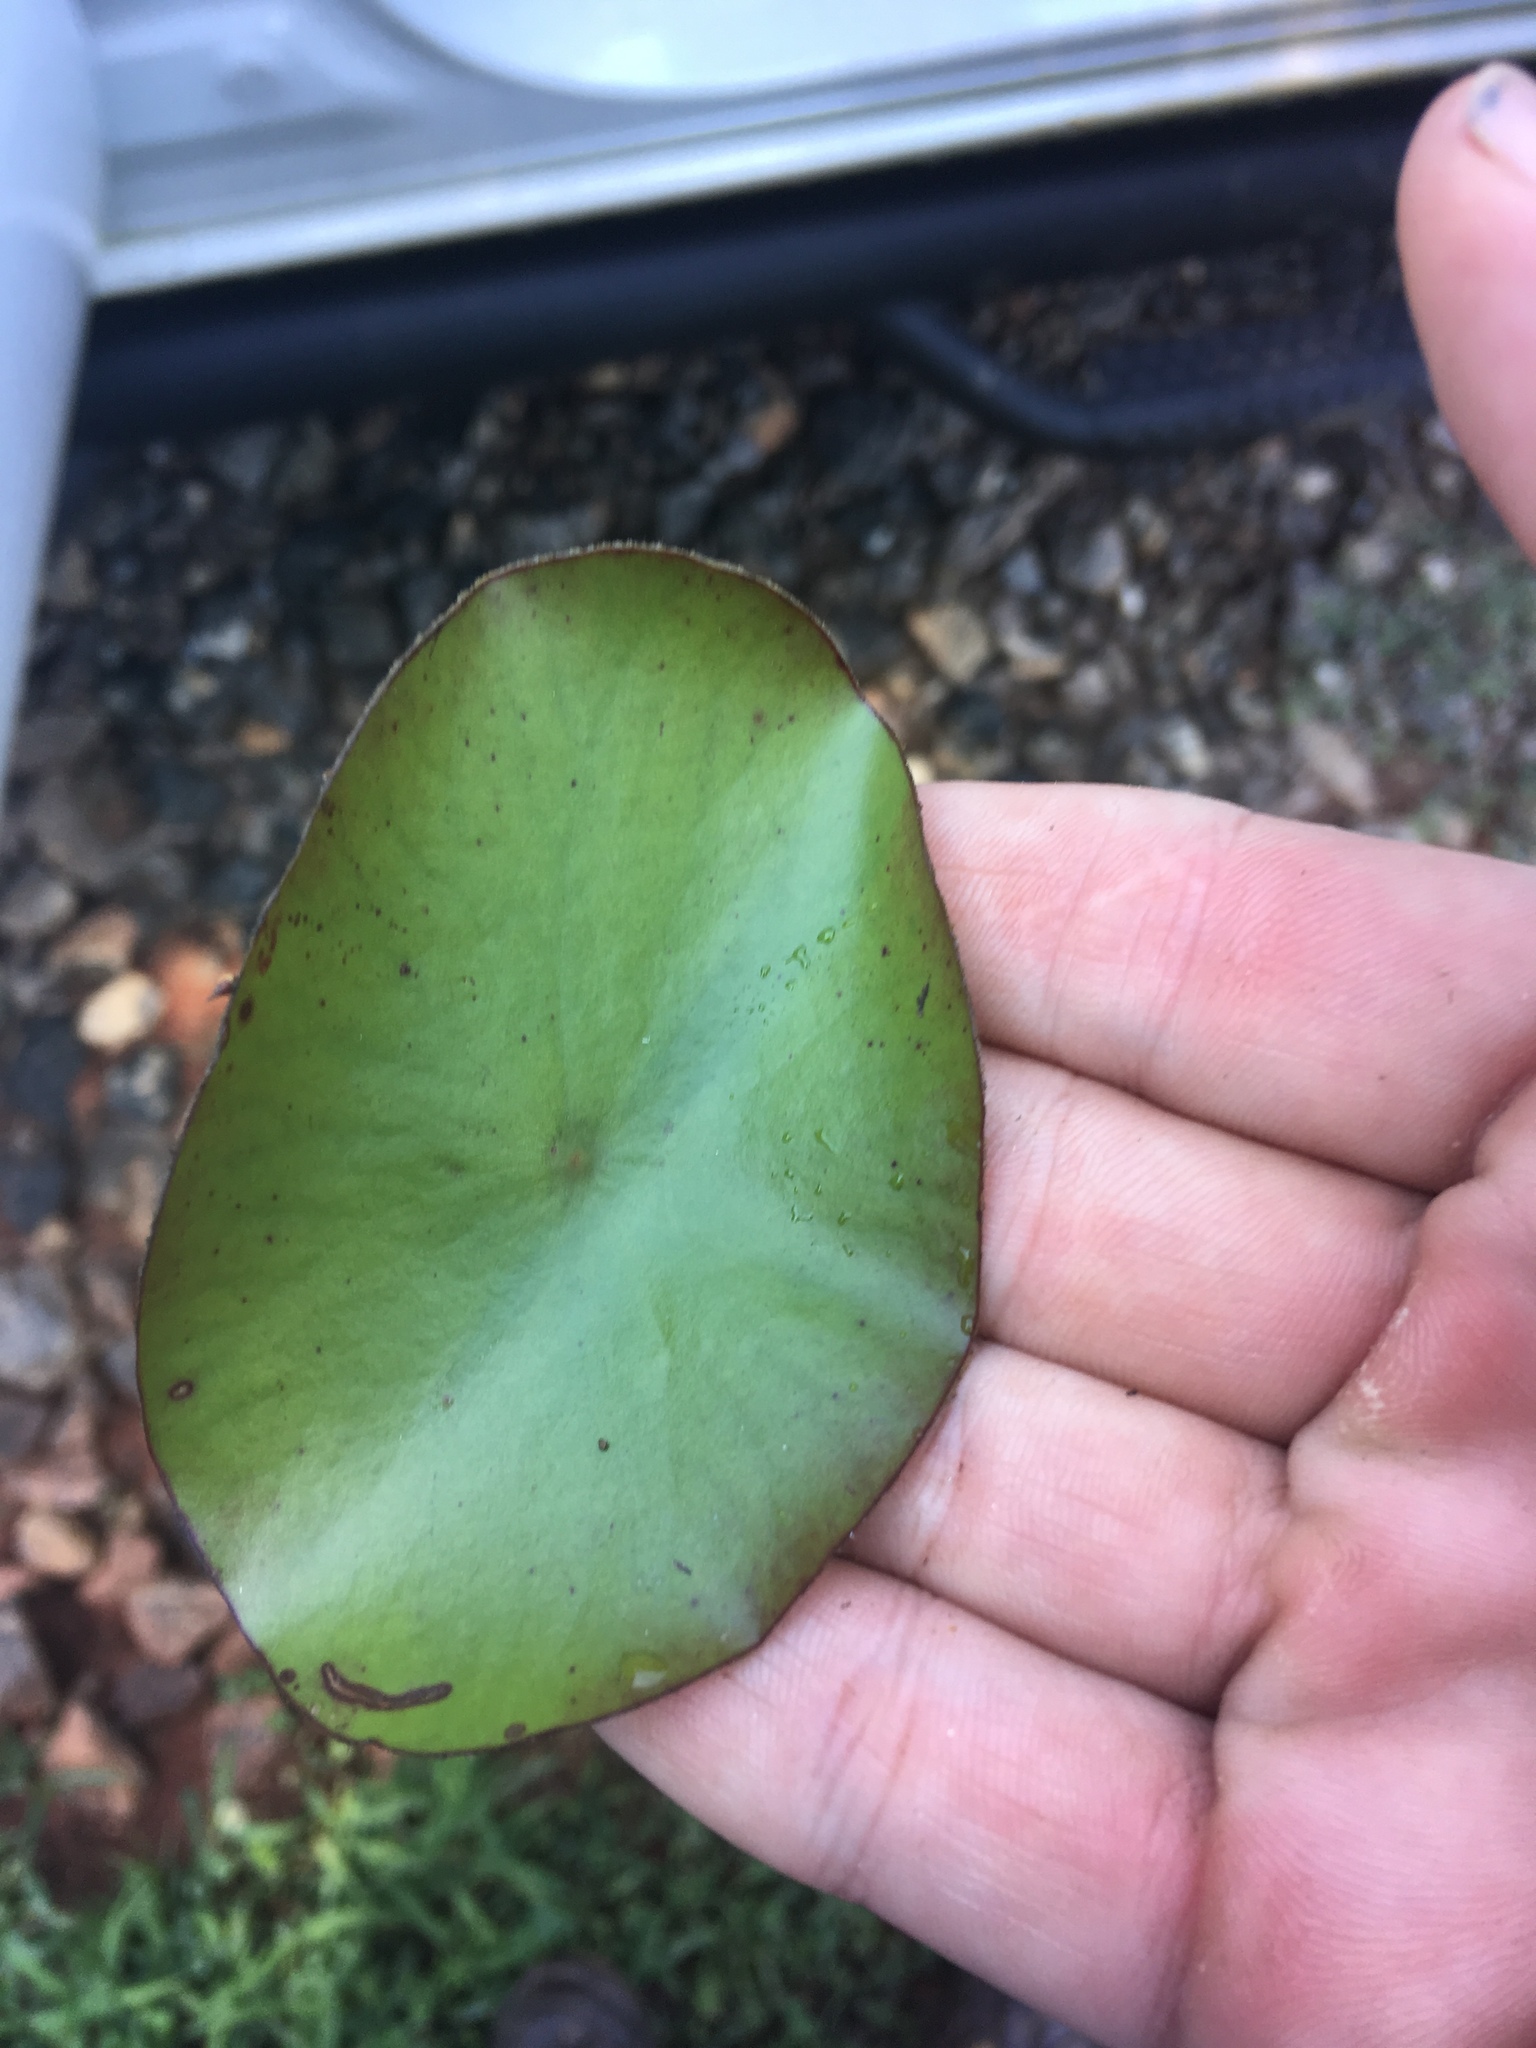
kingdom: Plantae
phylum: Tracheophyta
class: Magnoliopsida
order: Nymphaeales
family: Cabombaceae
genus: Brasenia
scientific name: Brasenia schreberi
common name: Water-shield
